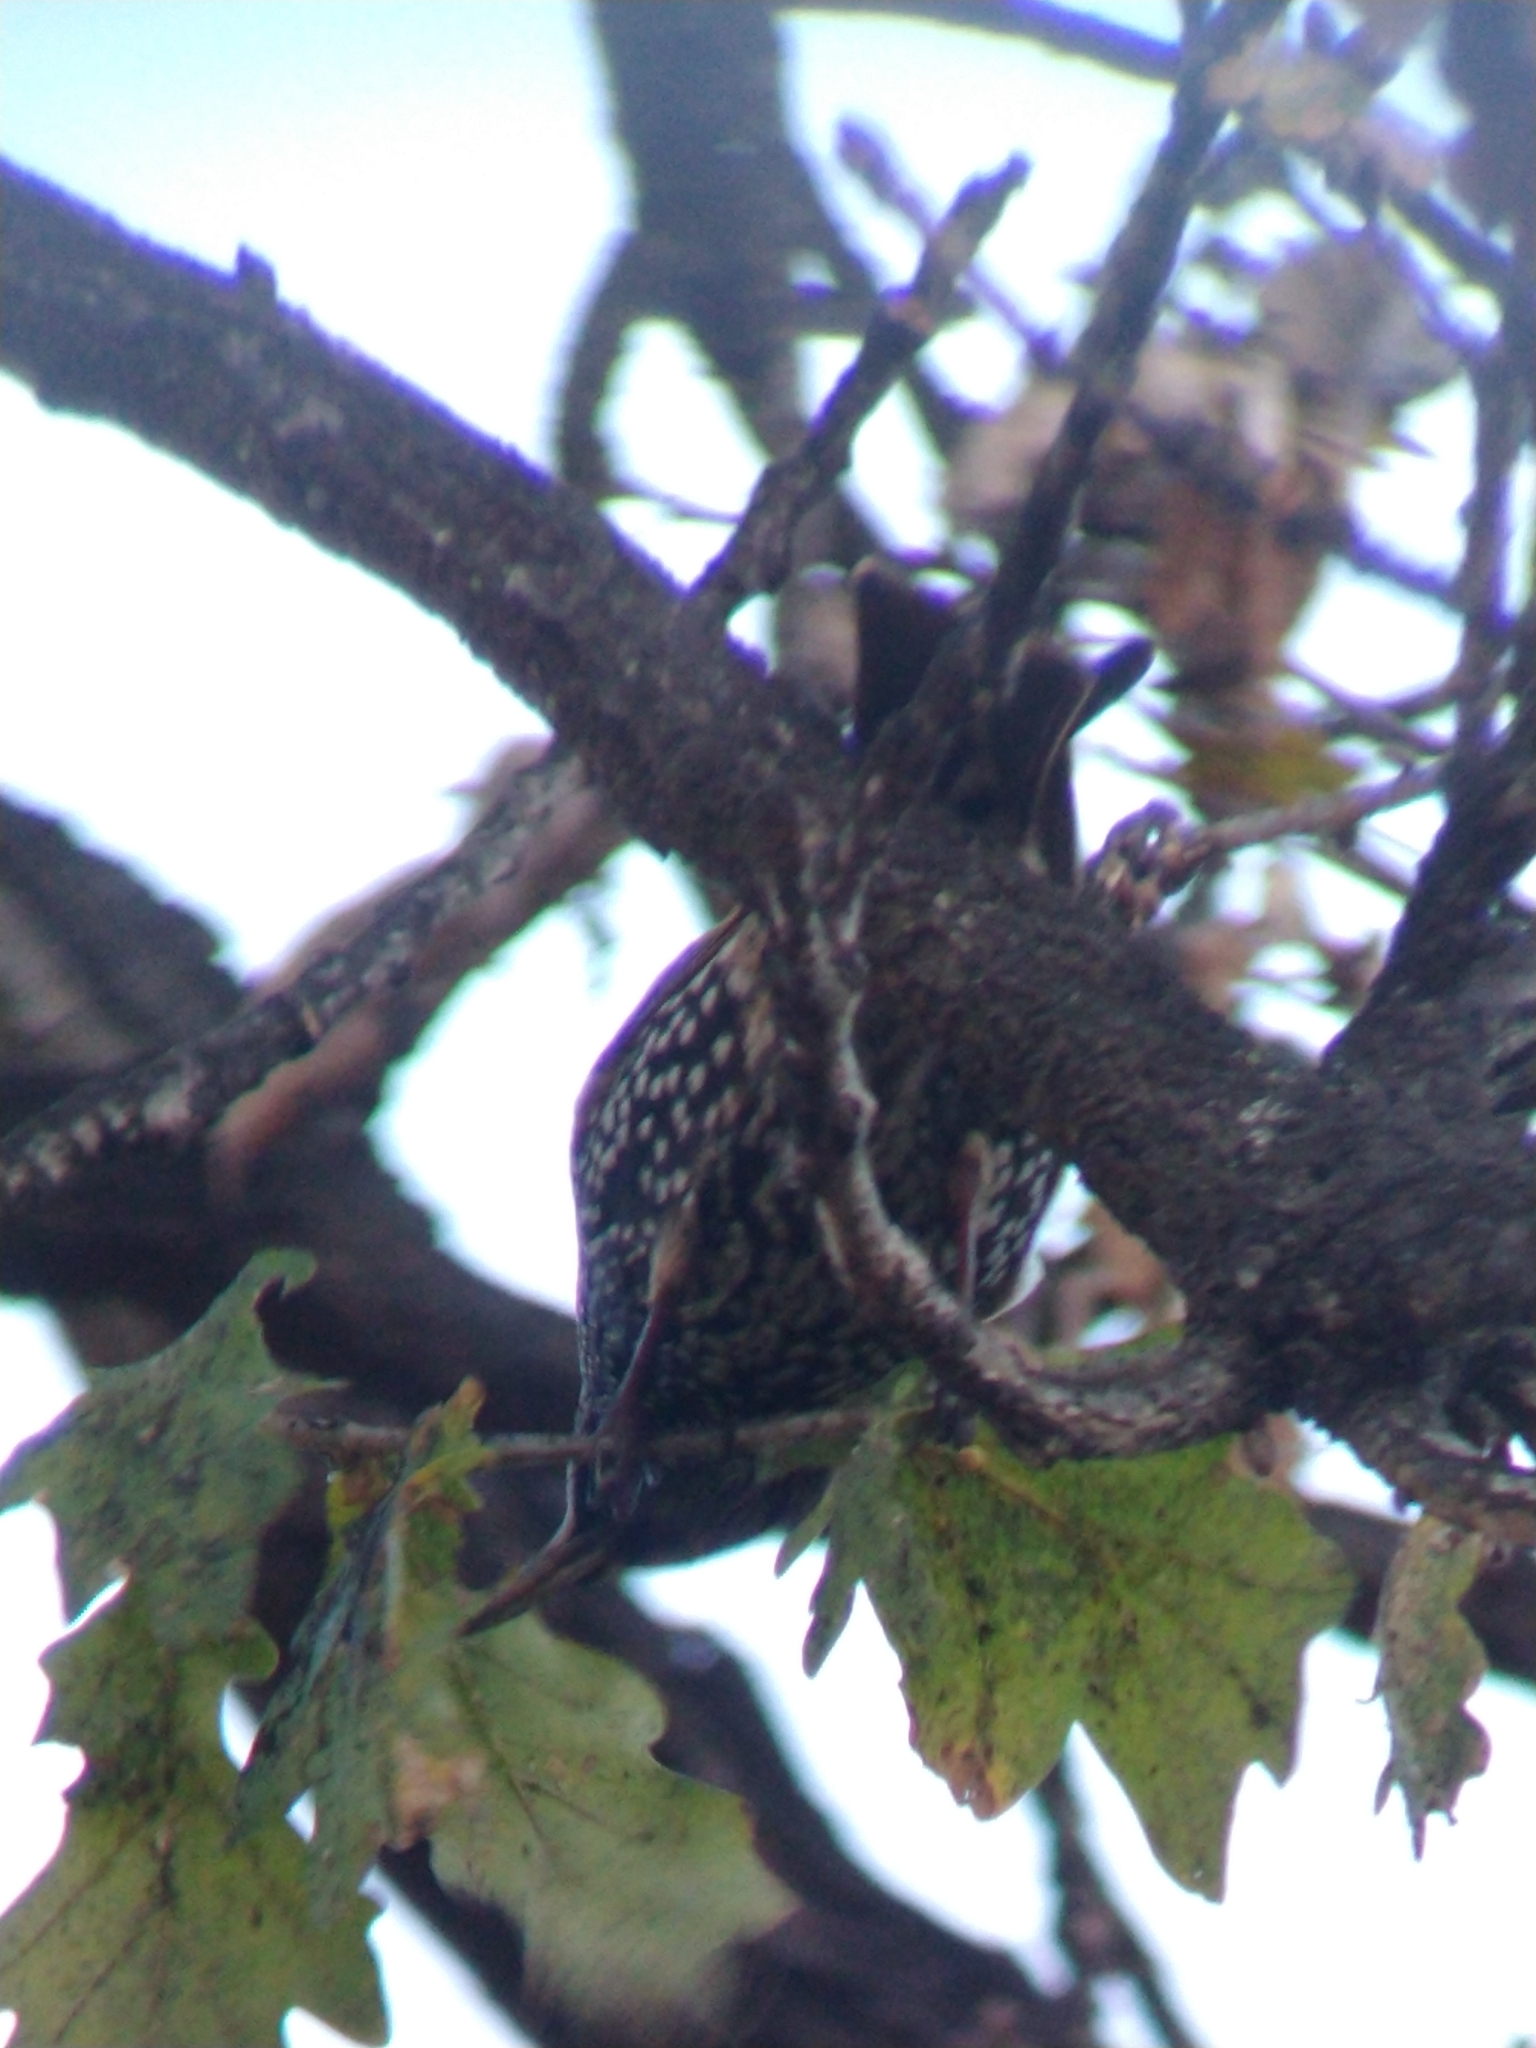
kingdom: Animalia
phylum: Chordata
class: Aves
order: Passeriformes
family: Sturnidae
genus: Sturnus
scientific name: Sturnus vulgaris
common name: Common starling
